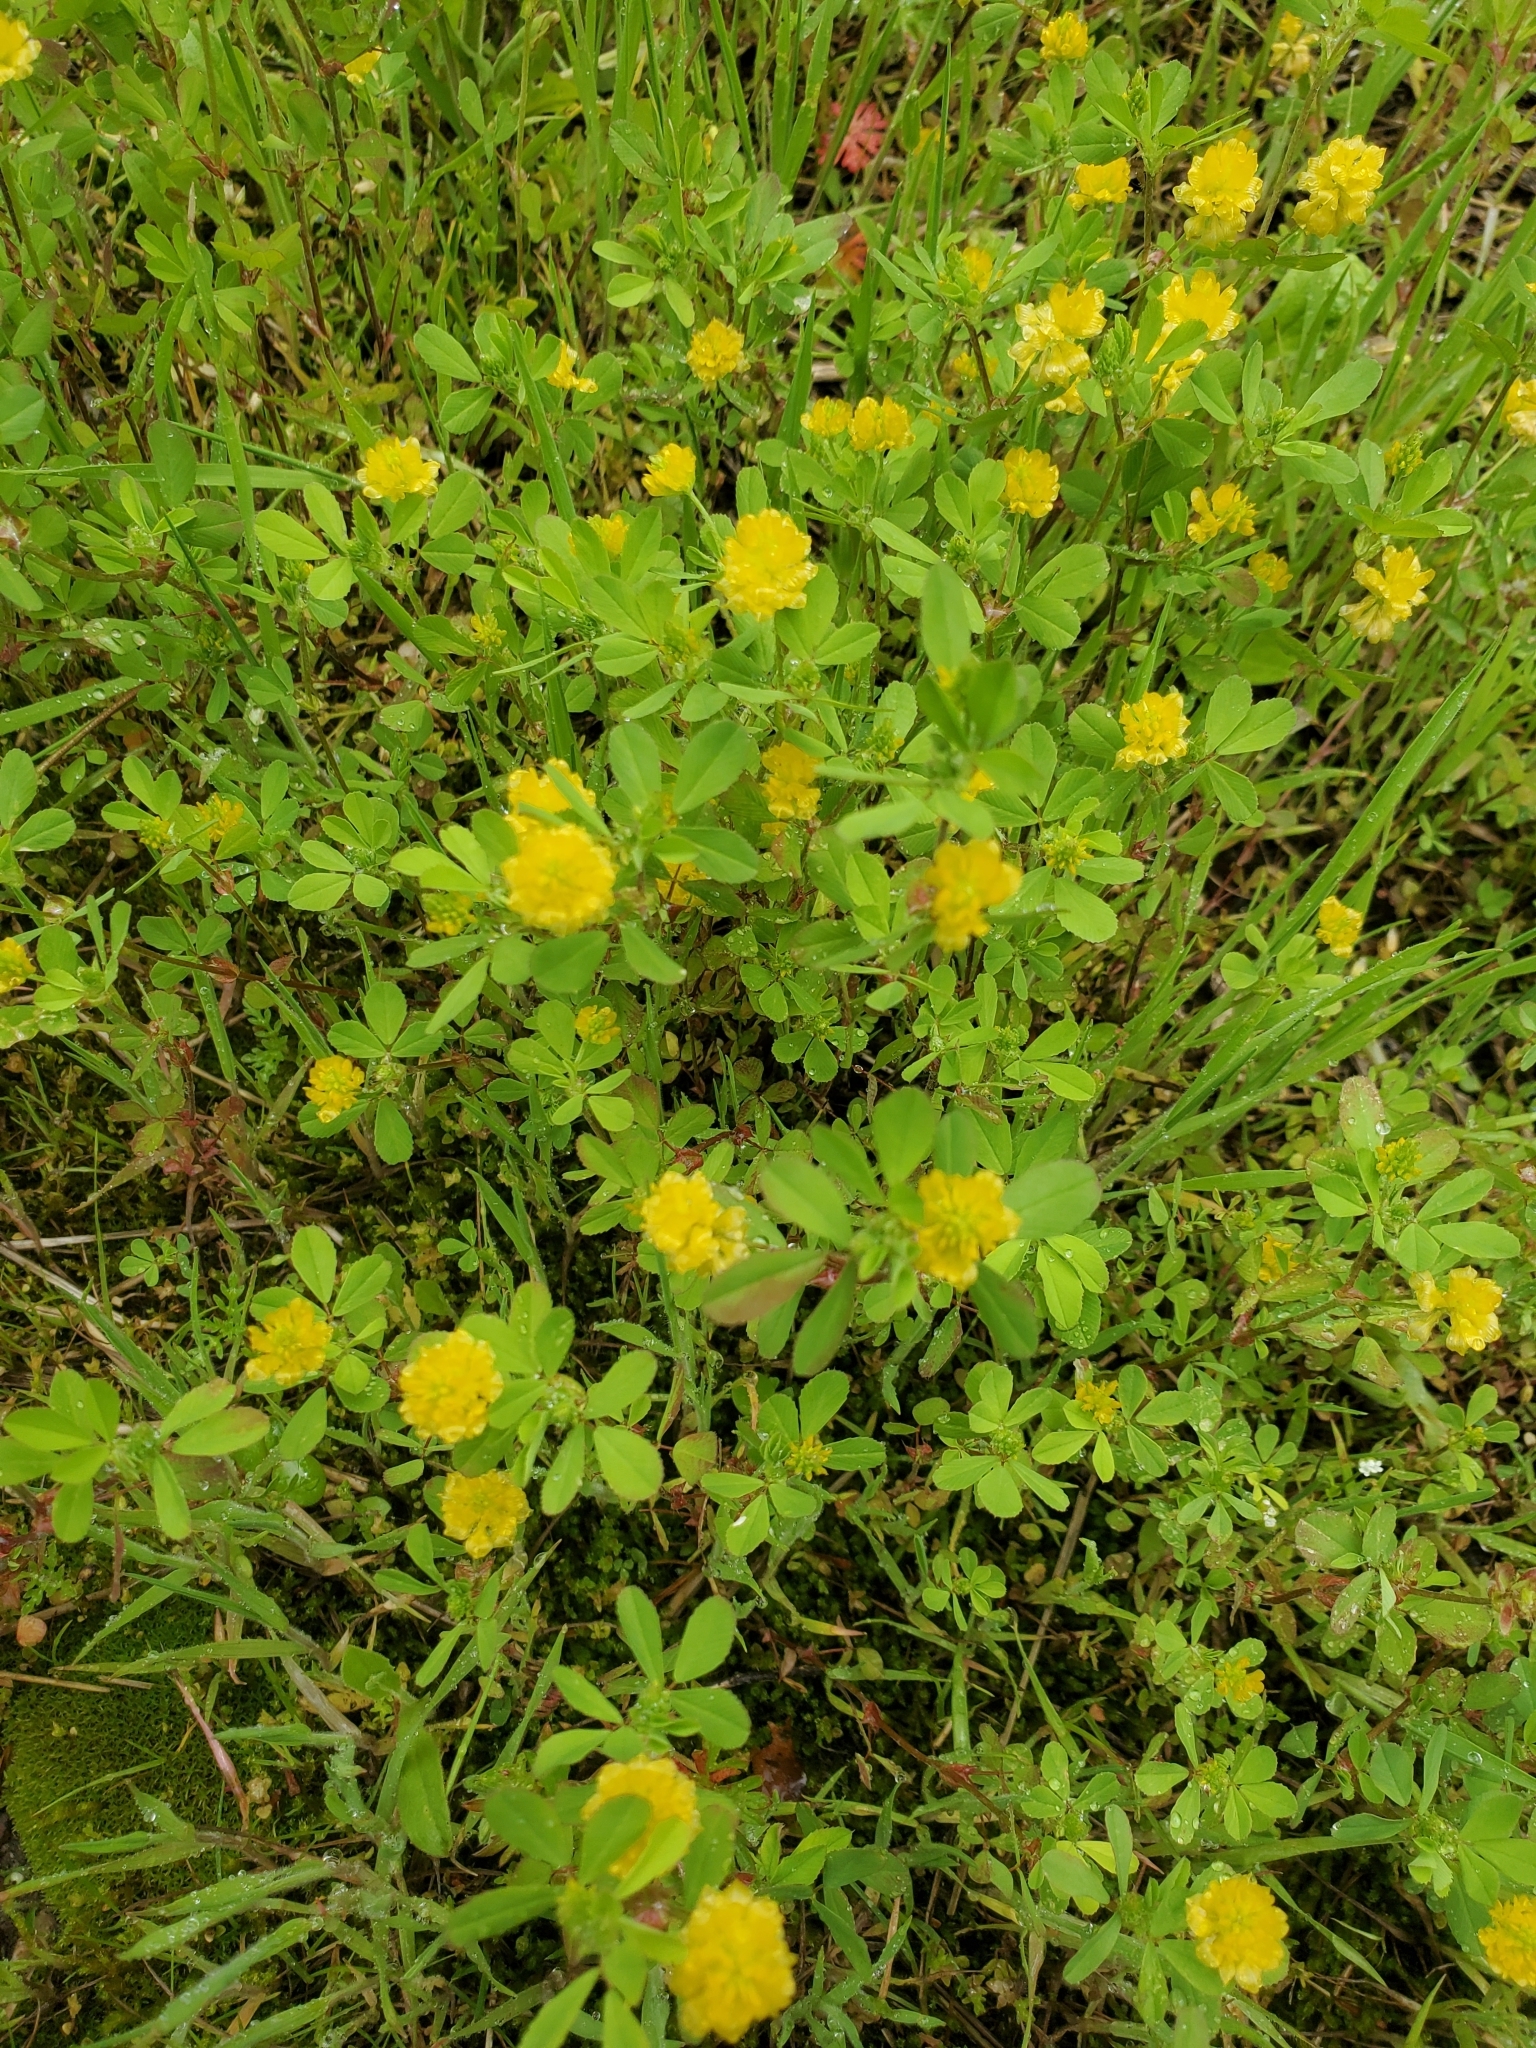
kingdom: Plantae
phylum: Tracheophyta
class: Magnoliopsida
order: Fabales
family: Fabaceae
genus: Trifolium
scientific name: Trifolium campestre
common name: Field clover
